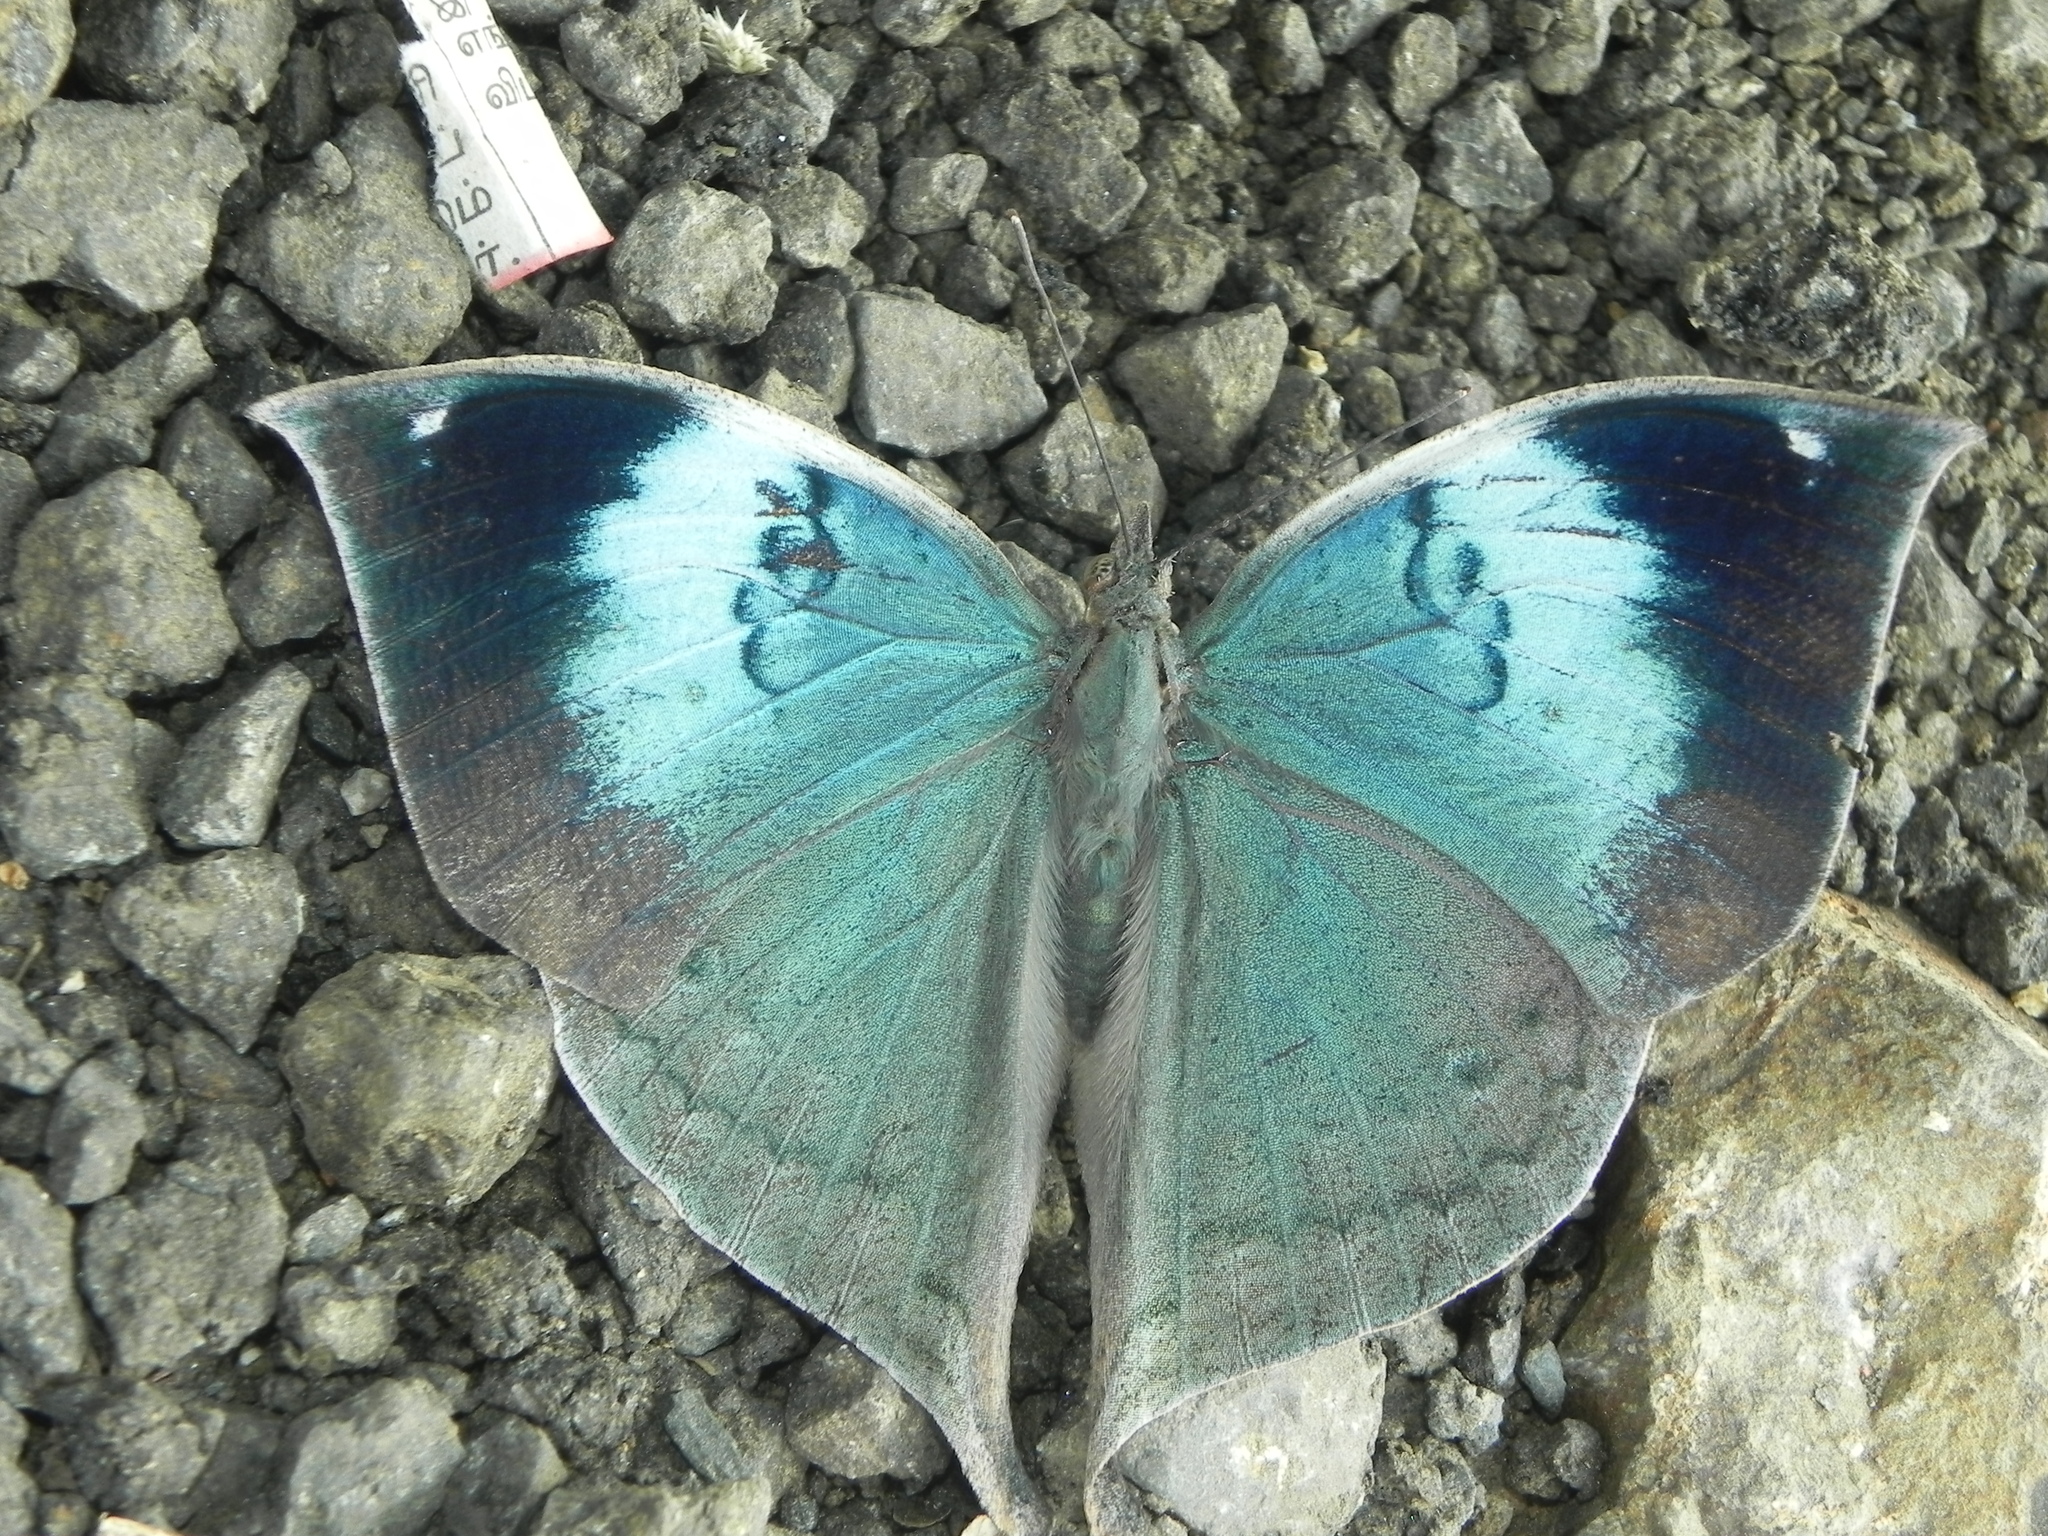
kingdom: Animalia
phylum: Arthropoda
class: Insecta
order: Lepidoptera
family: Nymphalidae
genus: Kallima
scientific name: Kallima horsfieldii
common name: Sahyadri blue oakleaf
